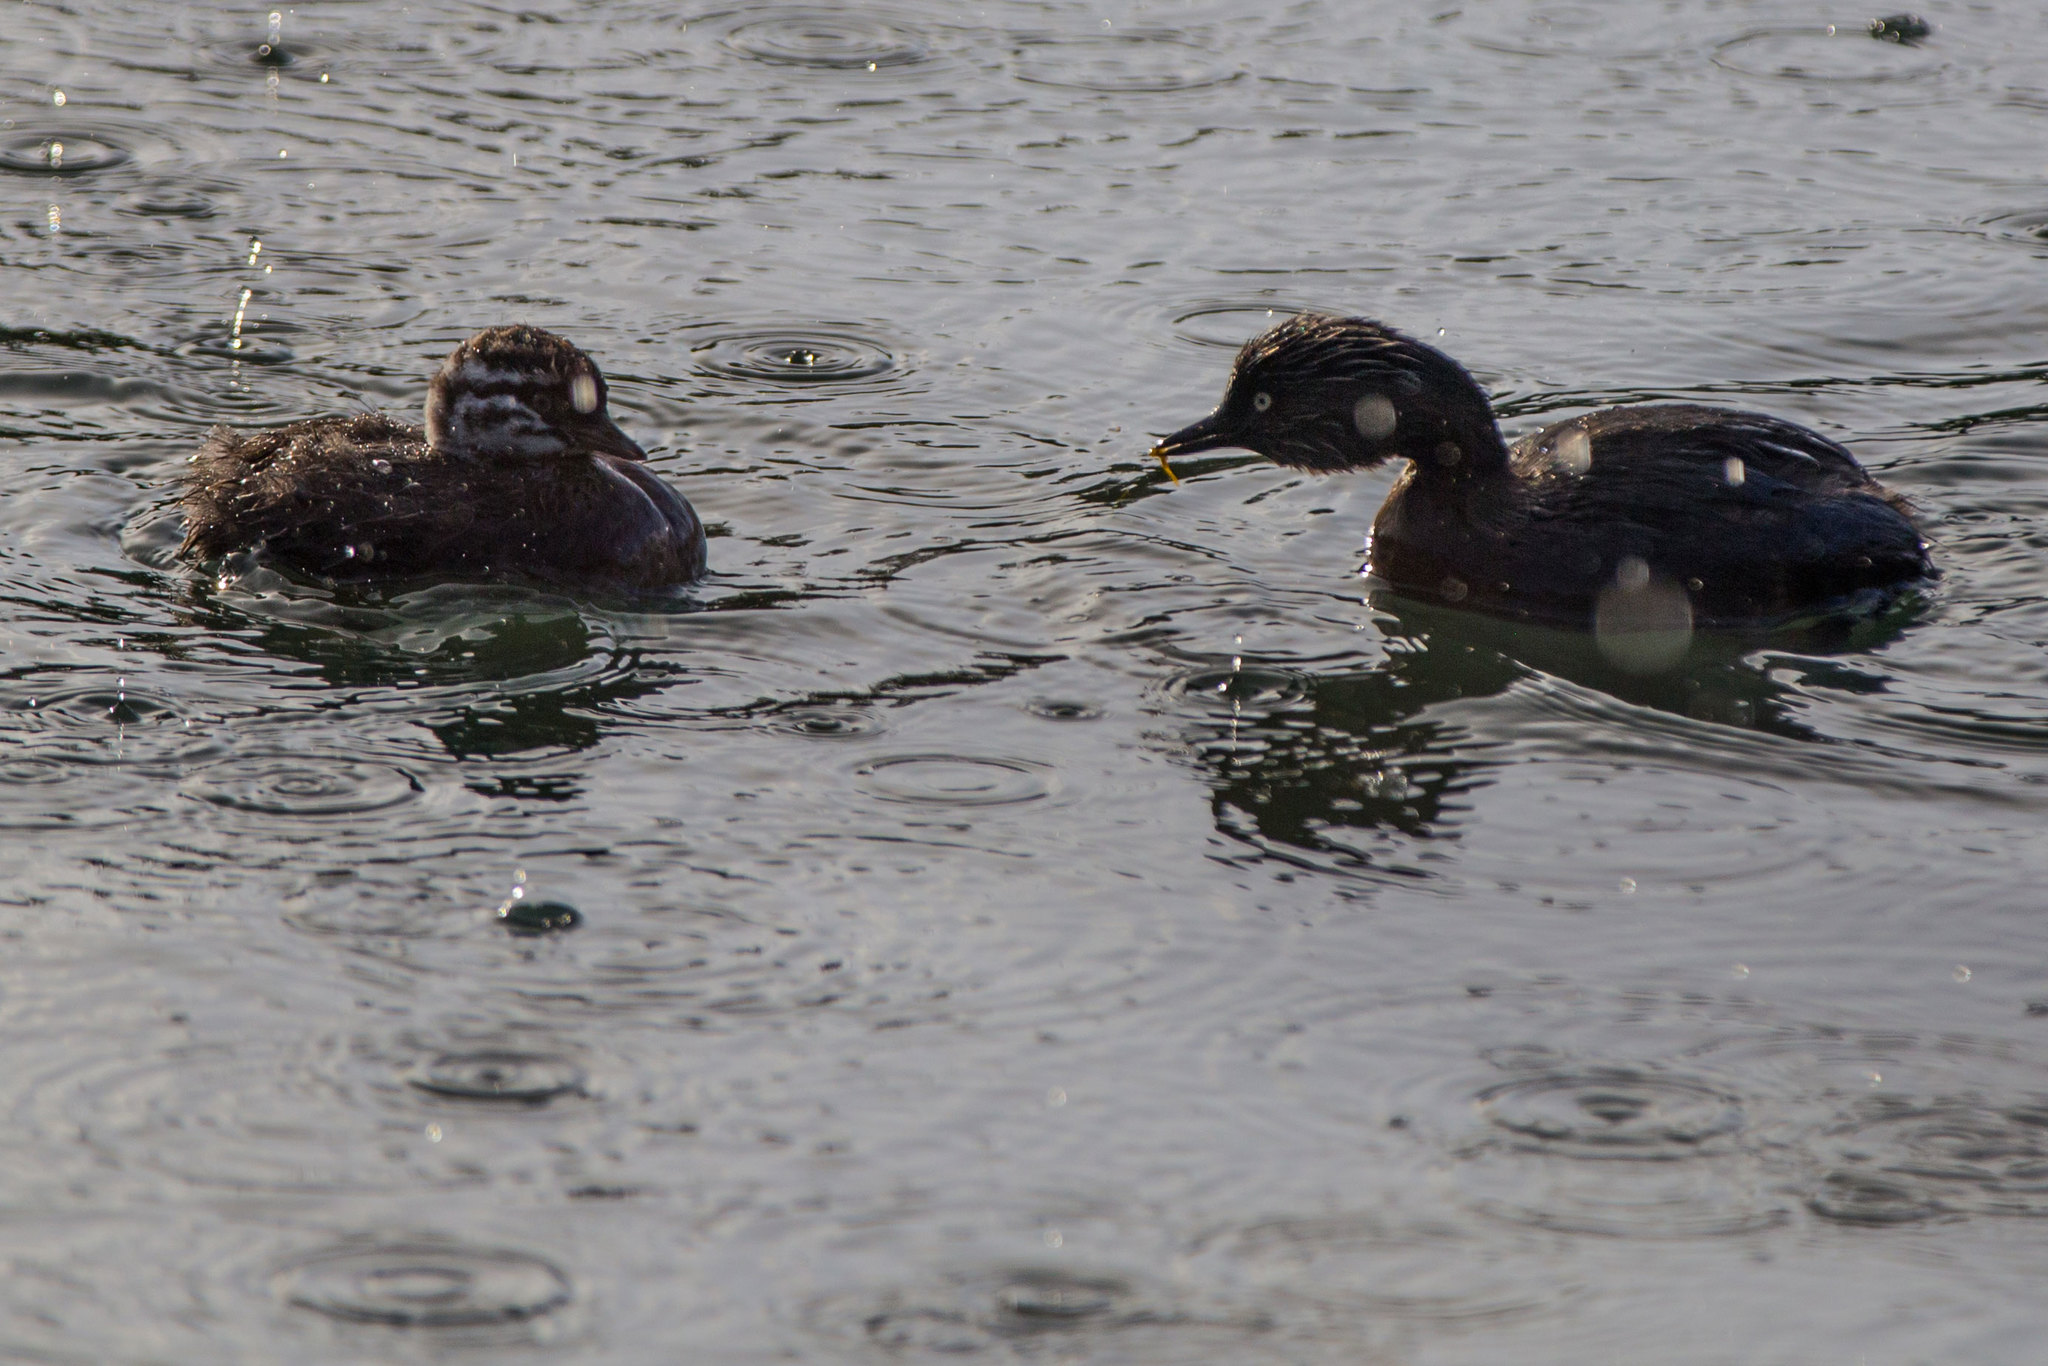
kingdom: Animalia
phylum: Chordata
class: Aves
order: Podicipediformes
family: Podicipedidae
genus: Poliocephalus
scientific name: Poliocephalus rufopectus
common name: New zealand grebe
